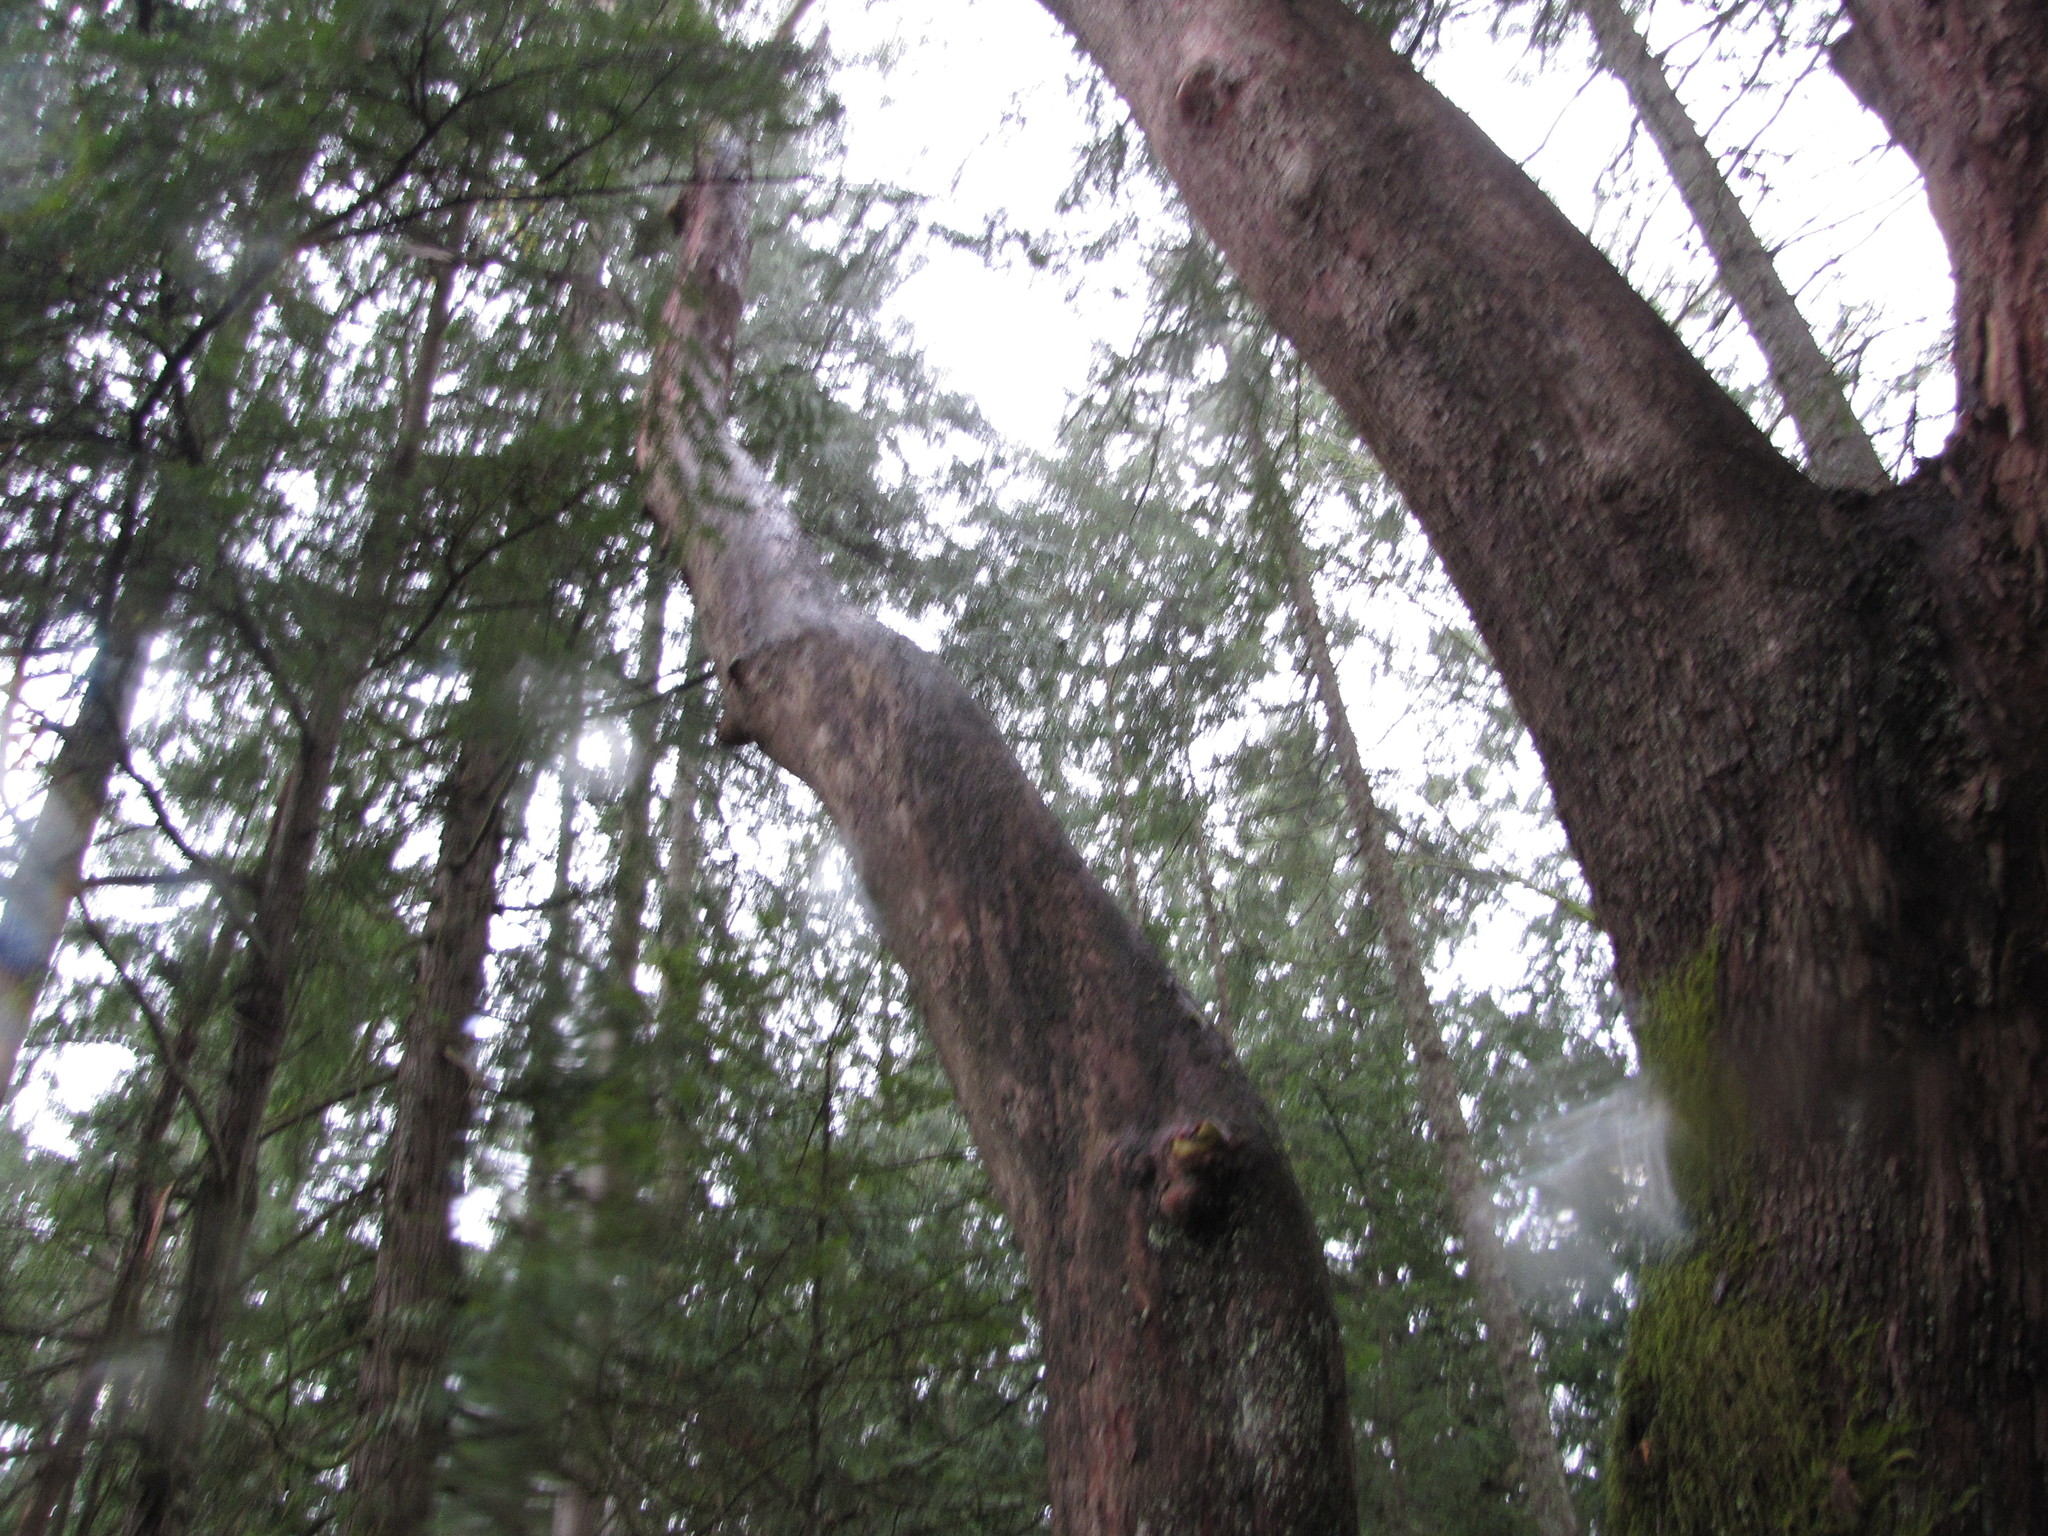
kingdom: Plantae
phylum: Tracheophyta
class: Magnoliopsida
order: Ericales
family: Ericaceae
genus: Arbutus
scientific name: Arbutus menziesii
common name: Pacific madrone
